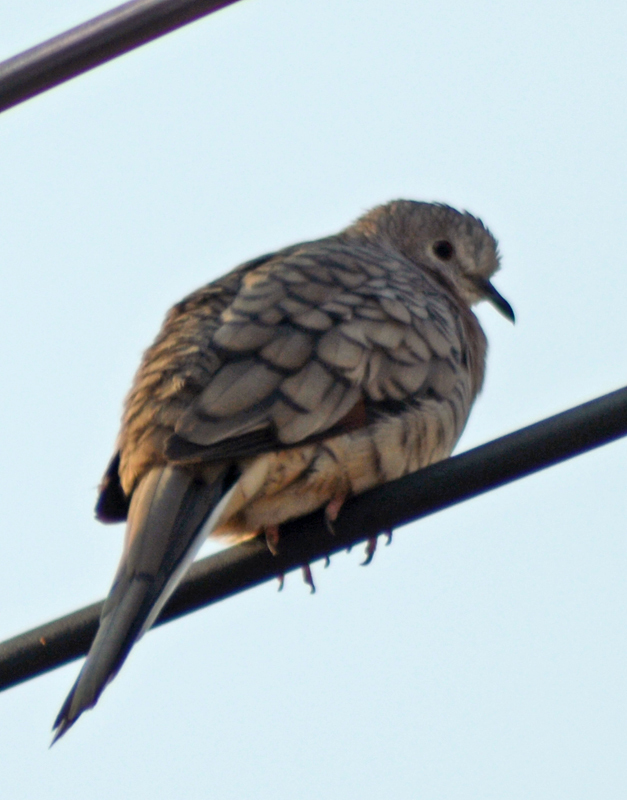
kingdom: Animalia
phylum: Chordata
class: Aves
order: Columbiformes
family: Columbidae
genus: Columbina
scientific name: Columbina inca
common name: Inca dove
